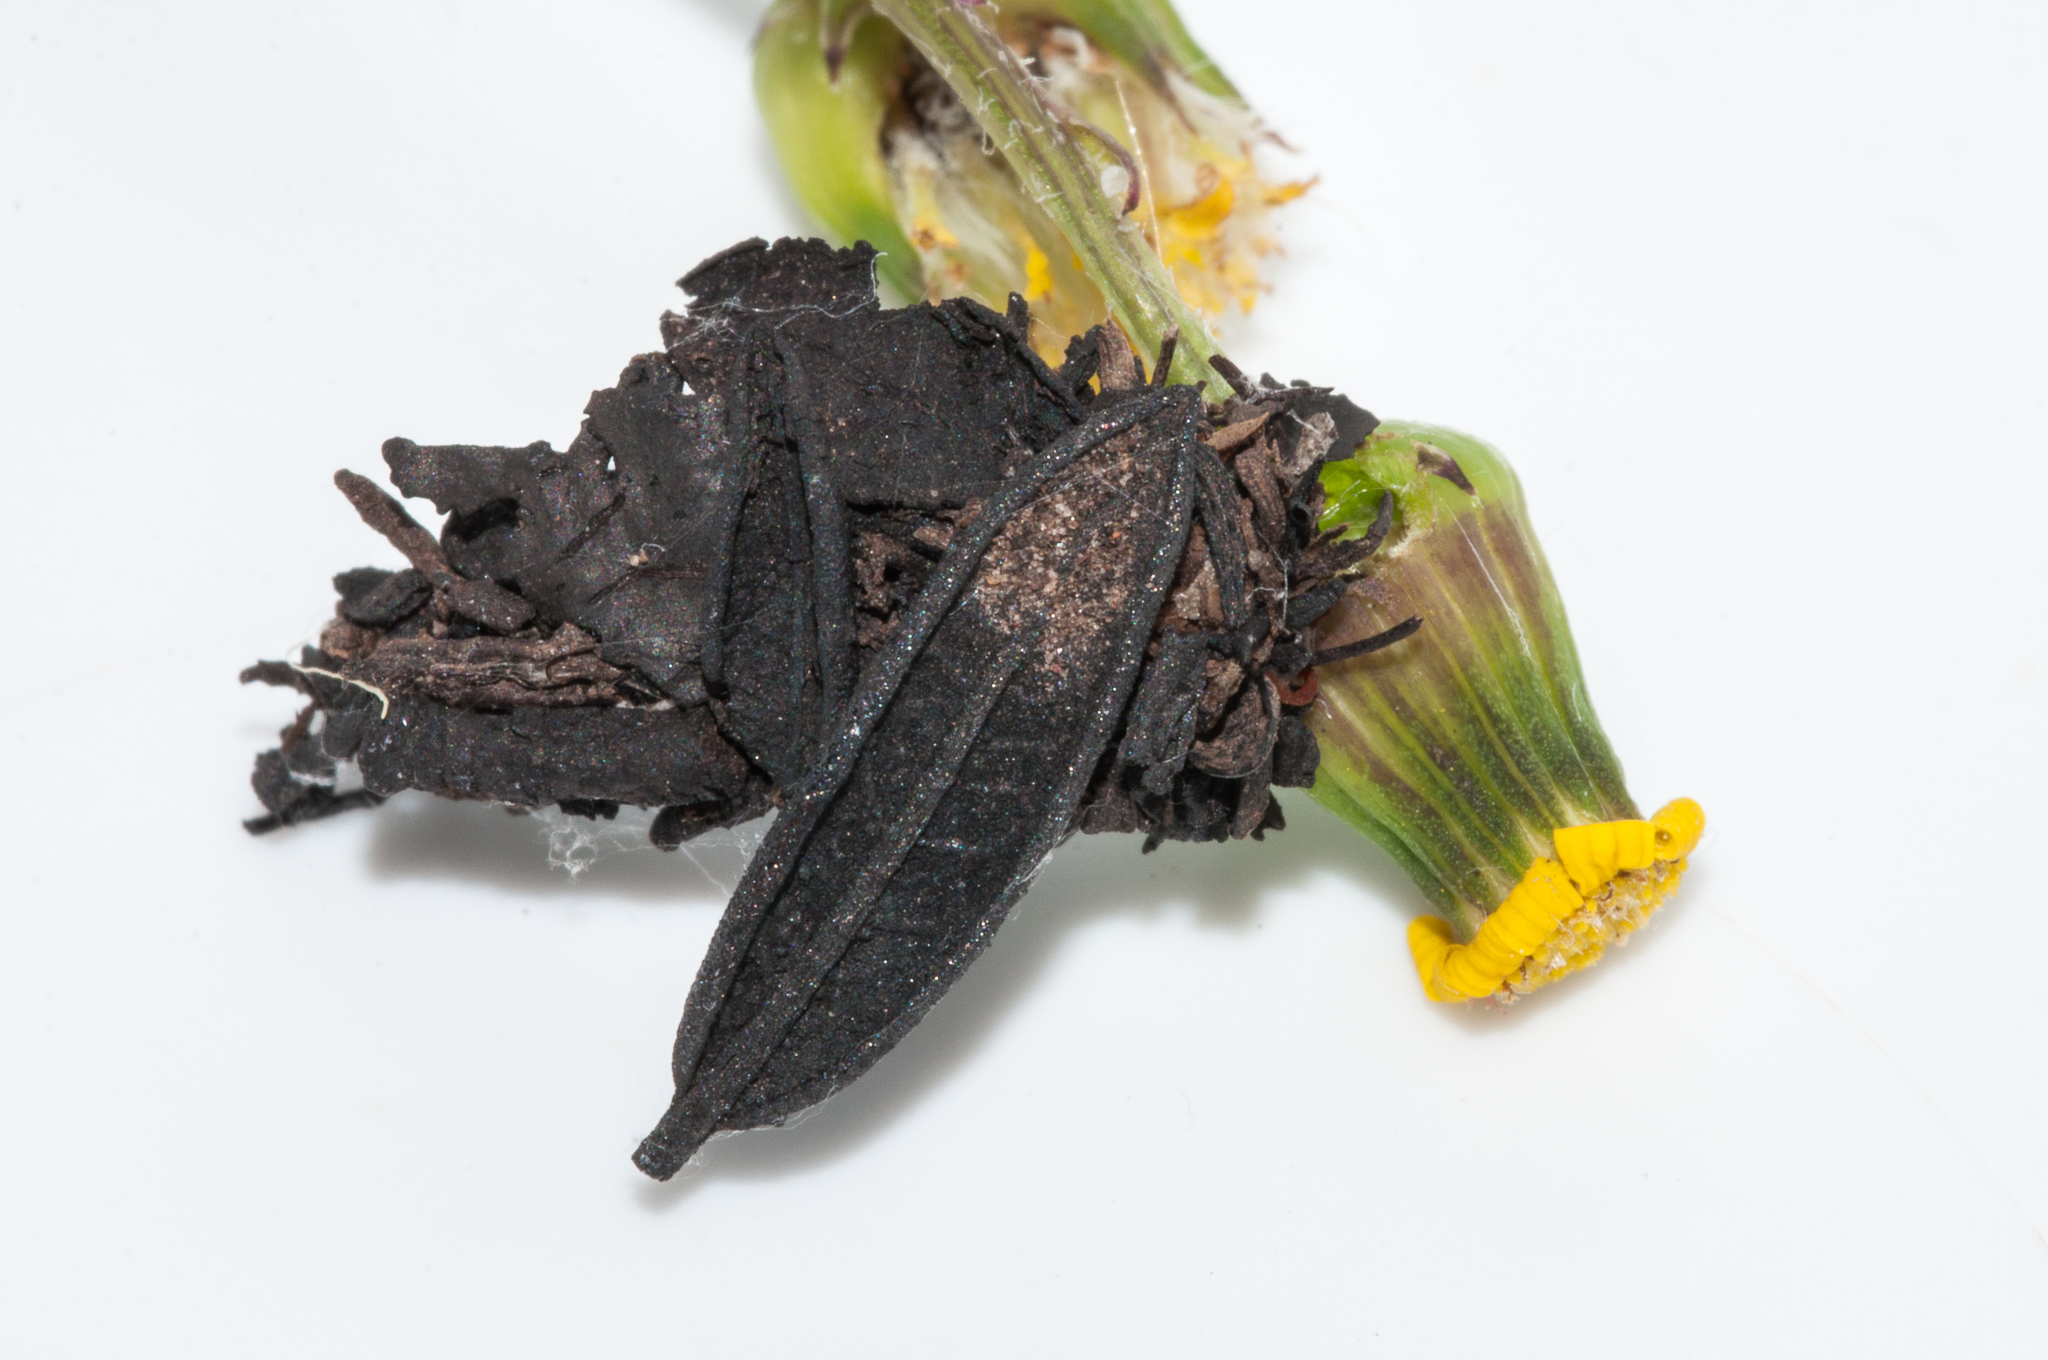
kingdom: Animalia
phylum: Arthropoda
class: Insecta
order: Lepidoptera
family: Psychidae
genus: Typhonia
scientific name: Typhonia circophora
